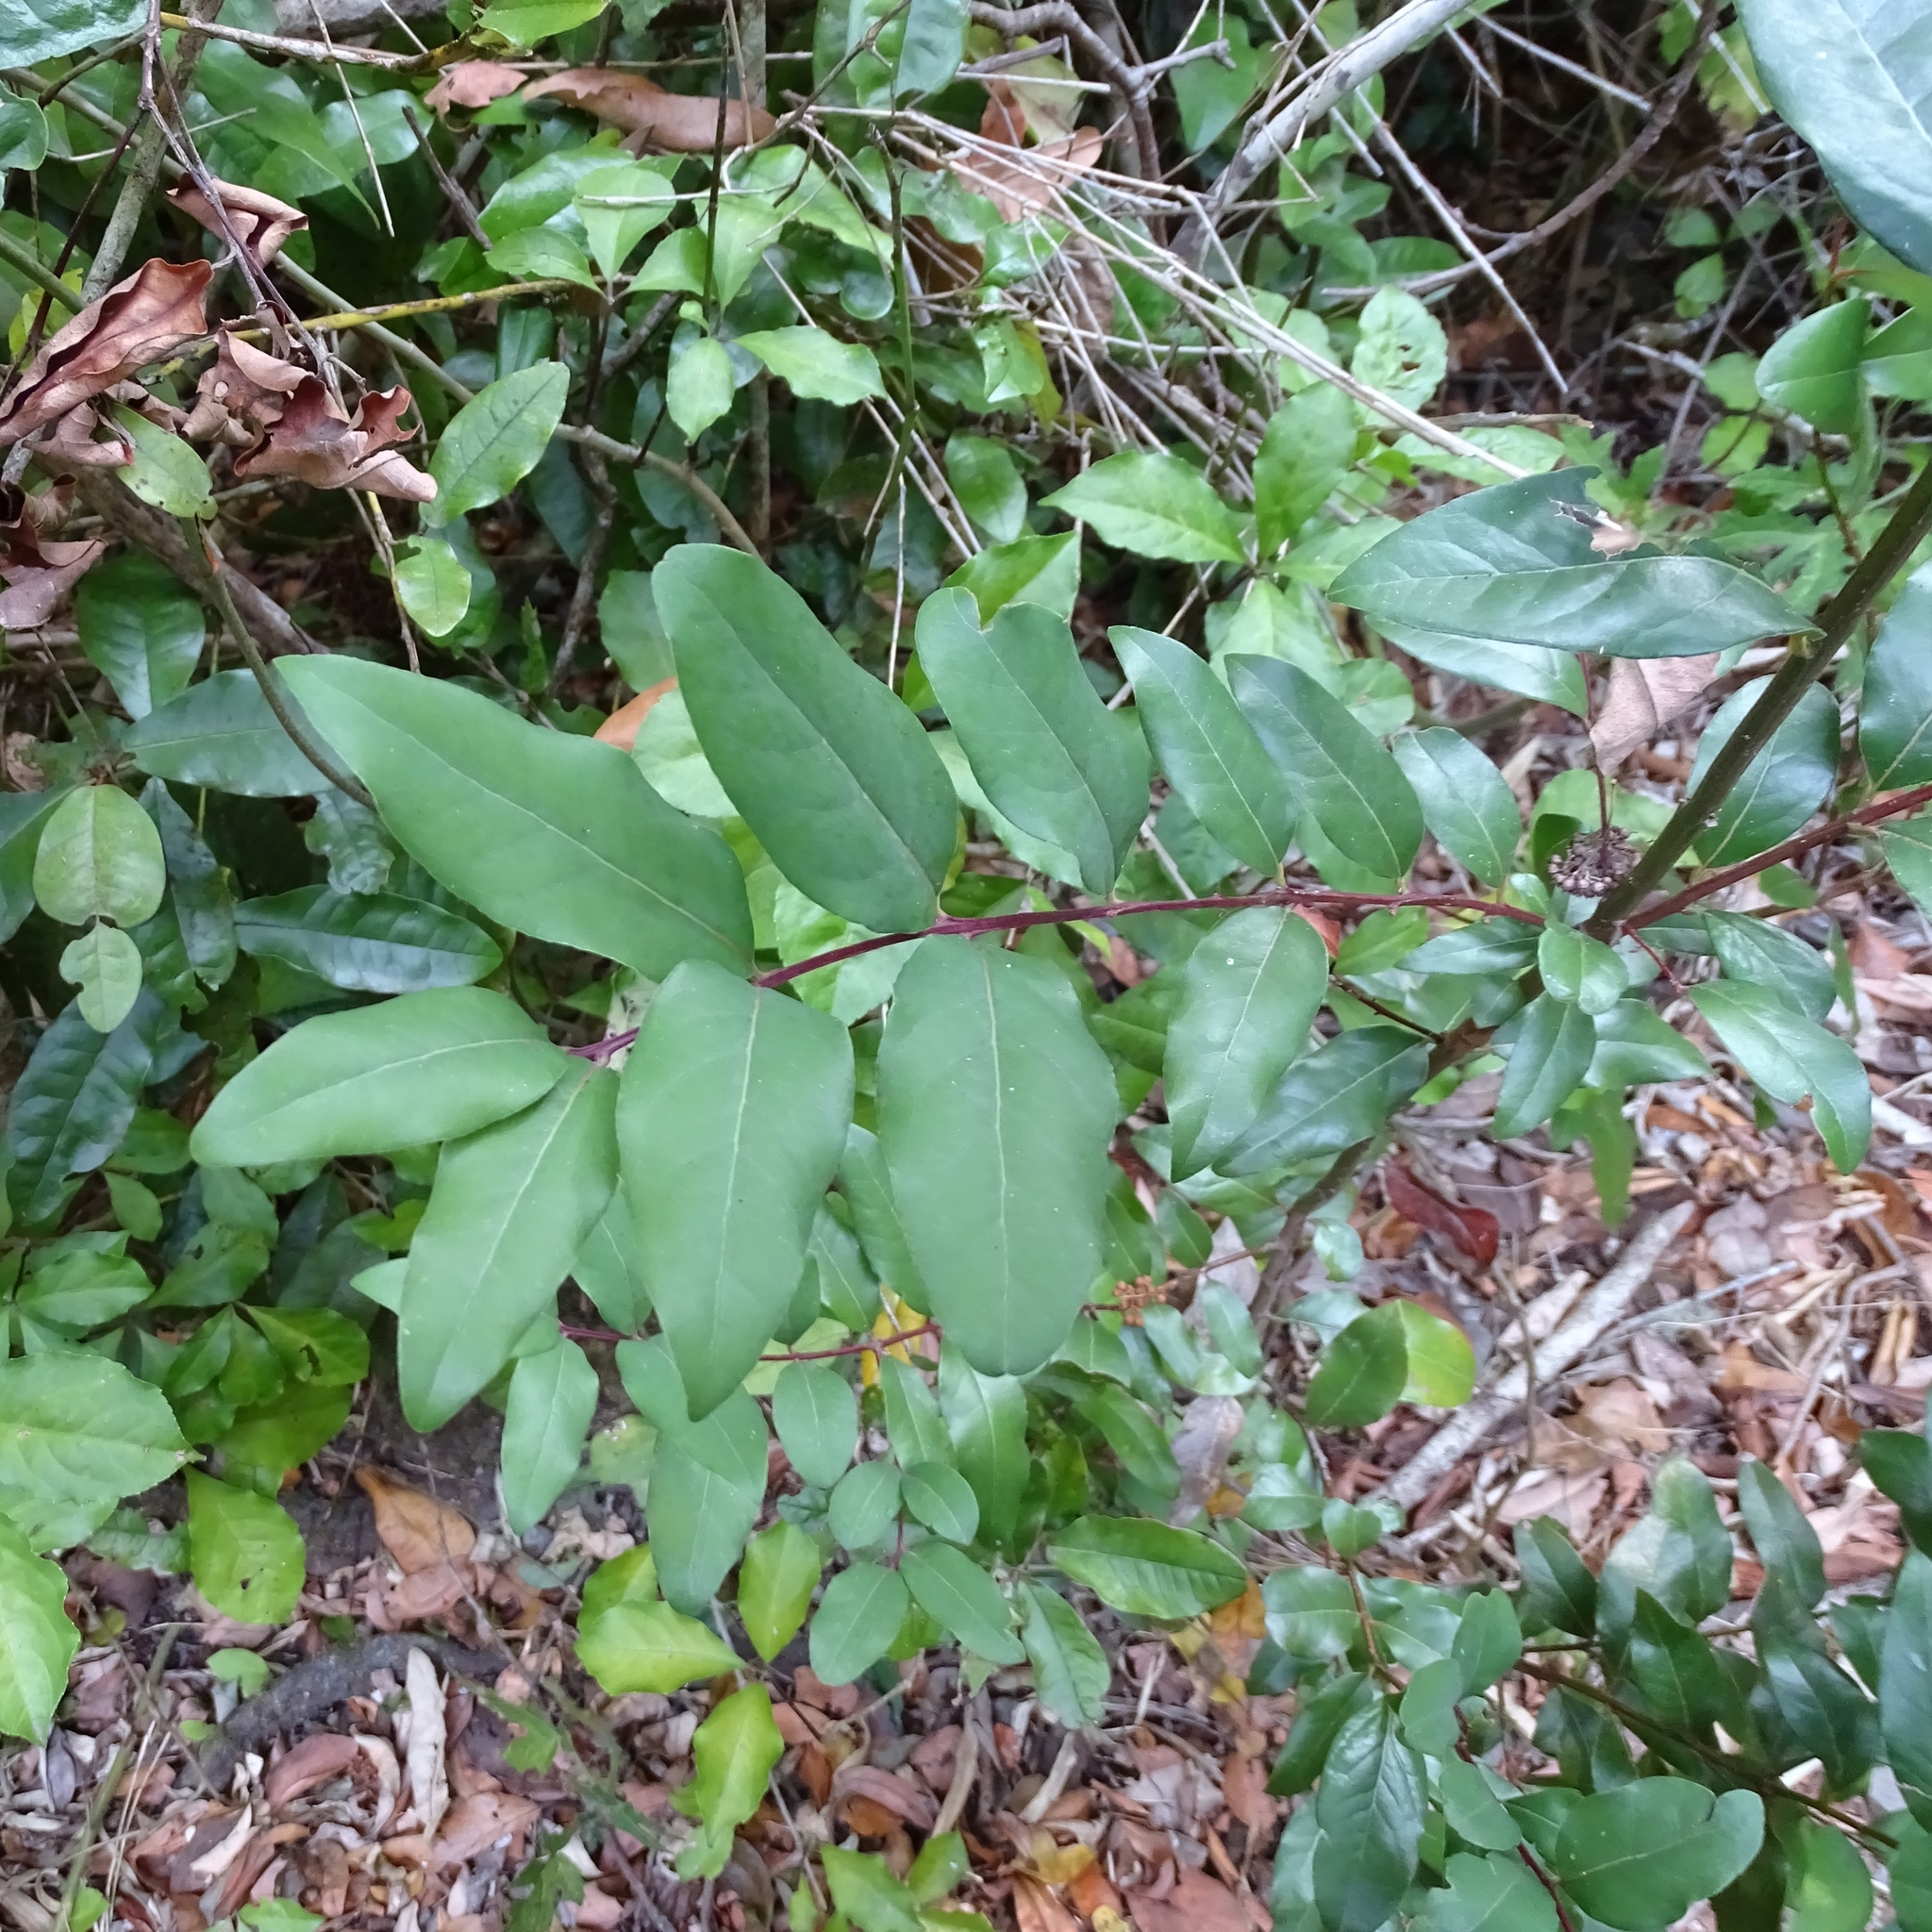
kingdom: Plantae
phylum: Tracheophyta
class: Magnoliopsida
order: Laurales
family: Lauraceae
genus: Cryptocarya
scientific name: Cryptocarya alba
